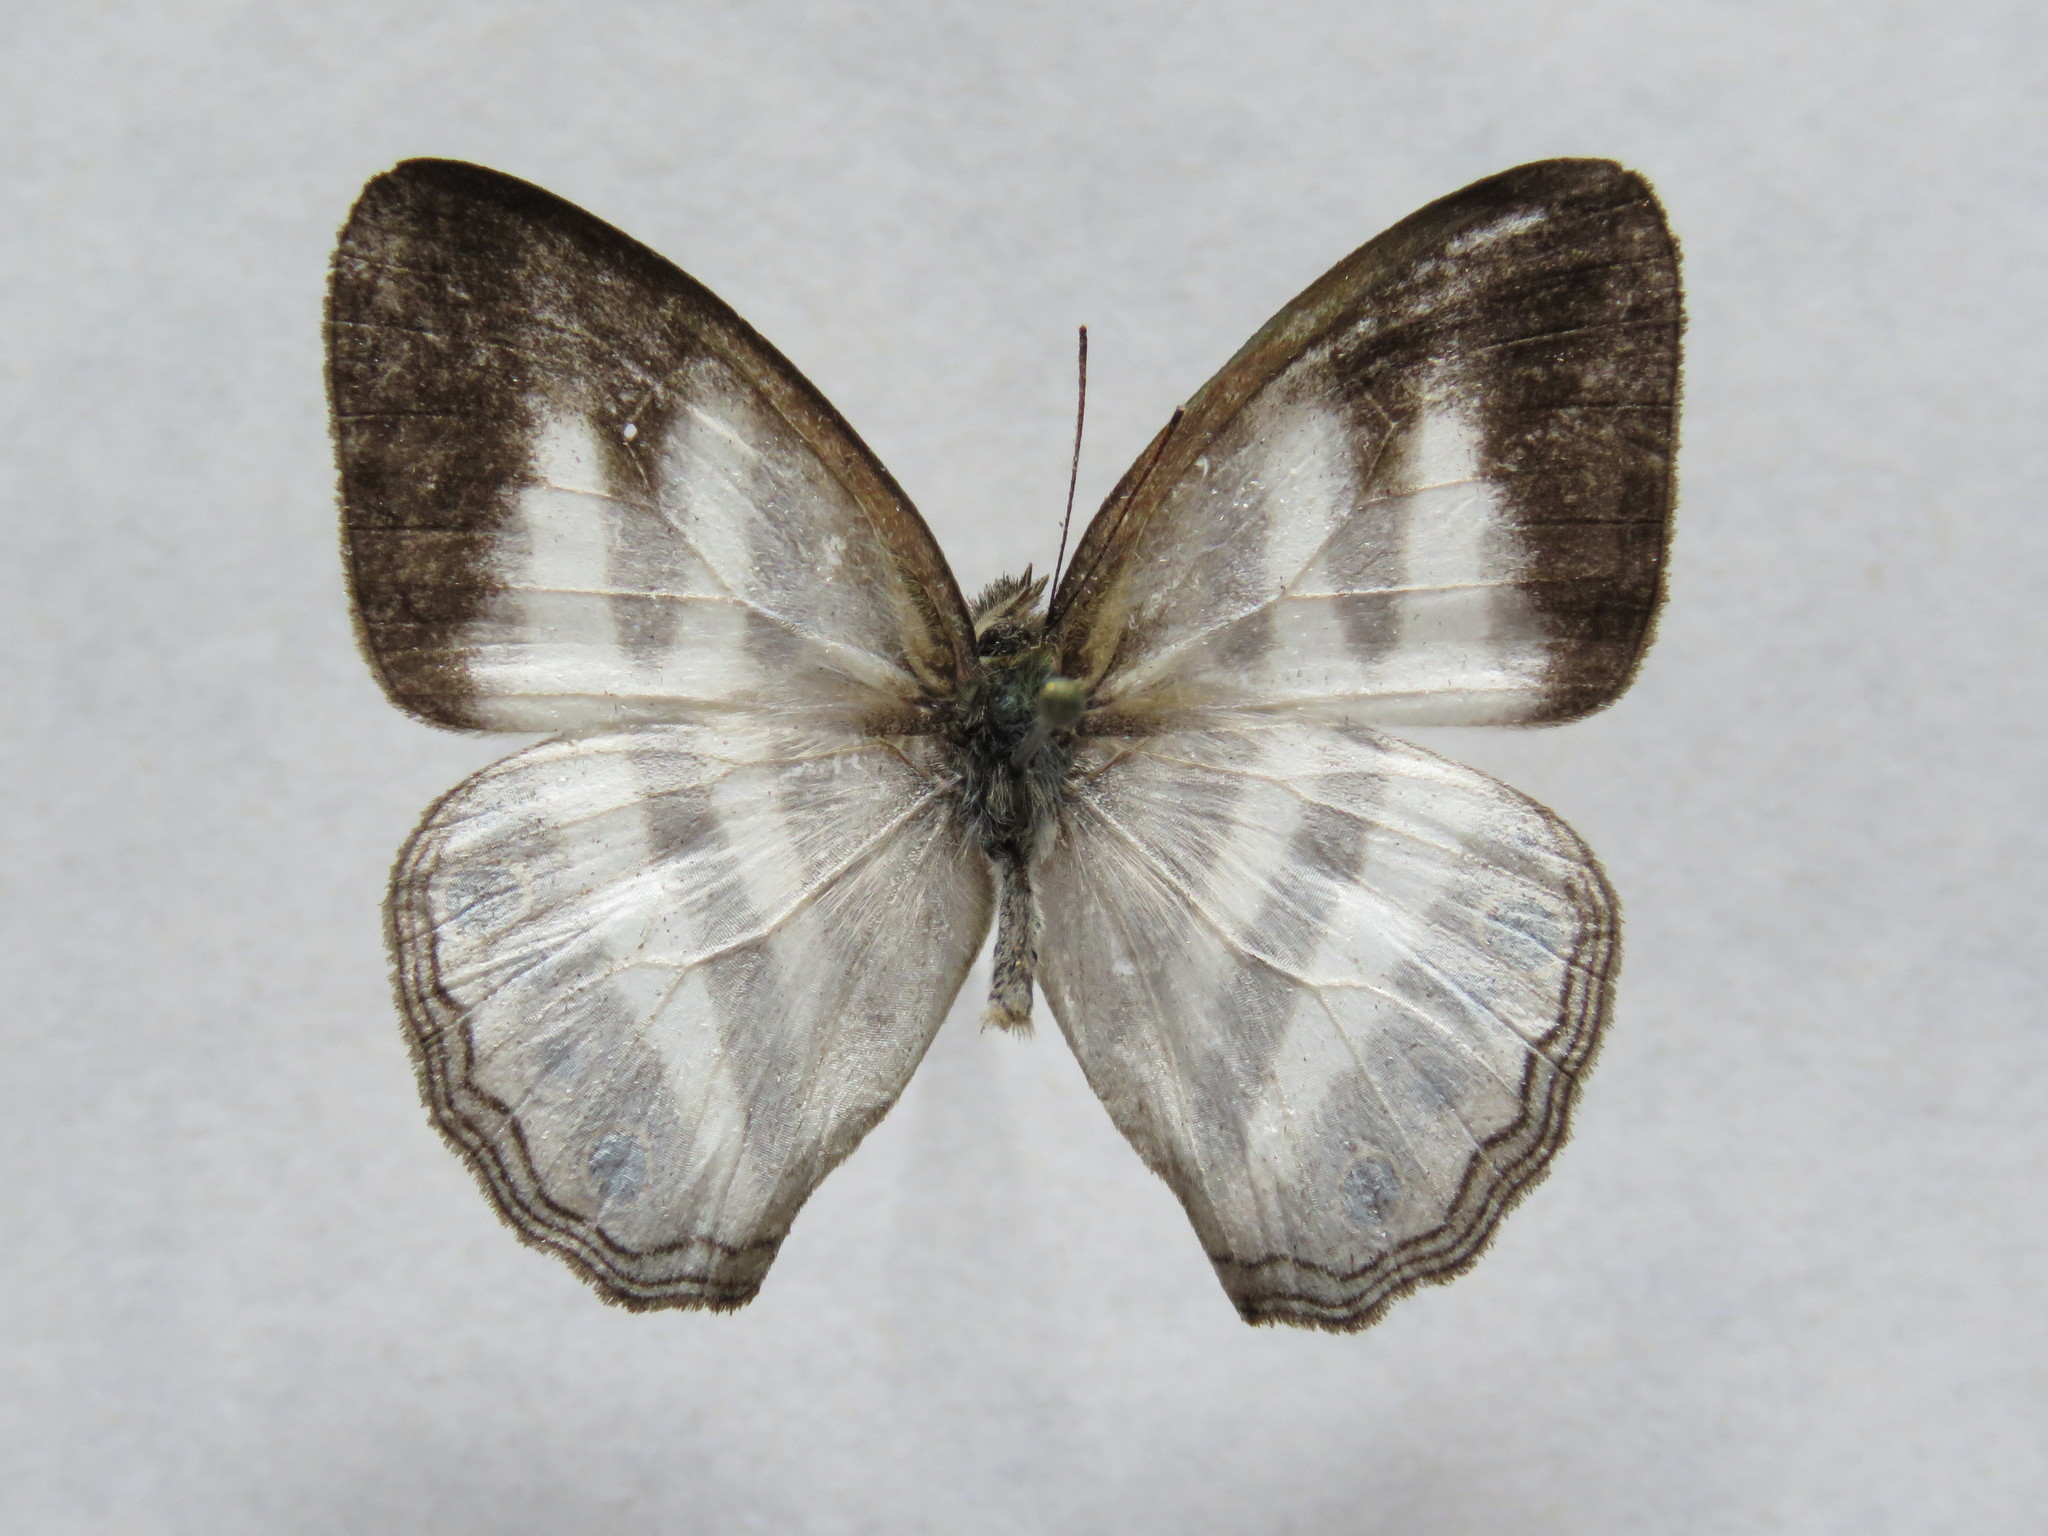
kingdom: Animalia
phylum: Arthropoda
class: Insecta
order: Lepidoptera
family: Nymphalidae
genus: Pareuptychia
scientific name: Pareuptychia hesione
